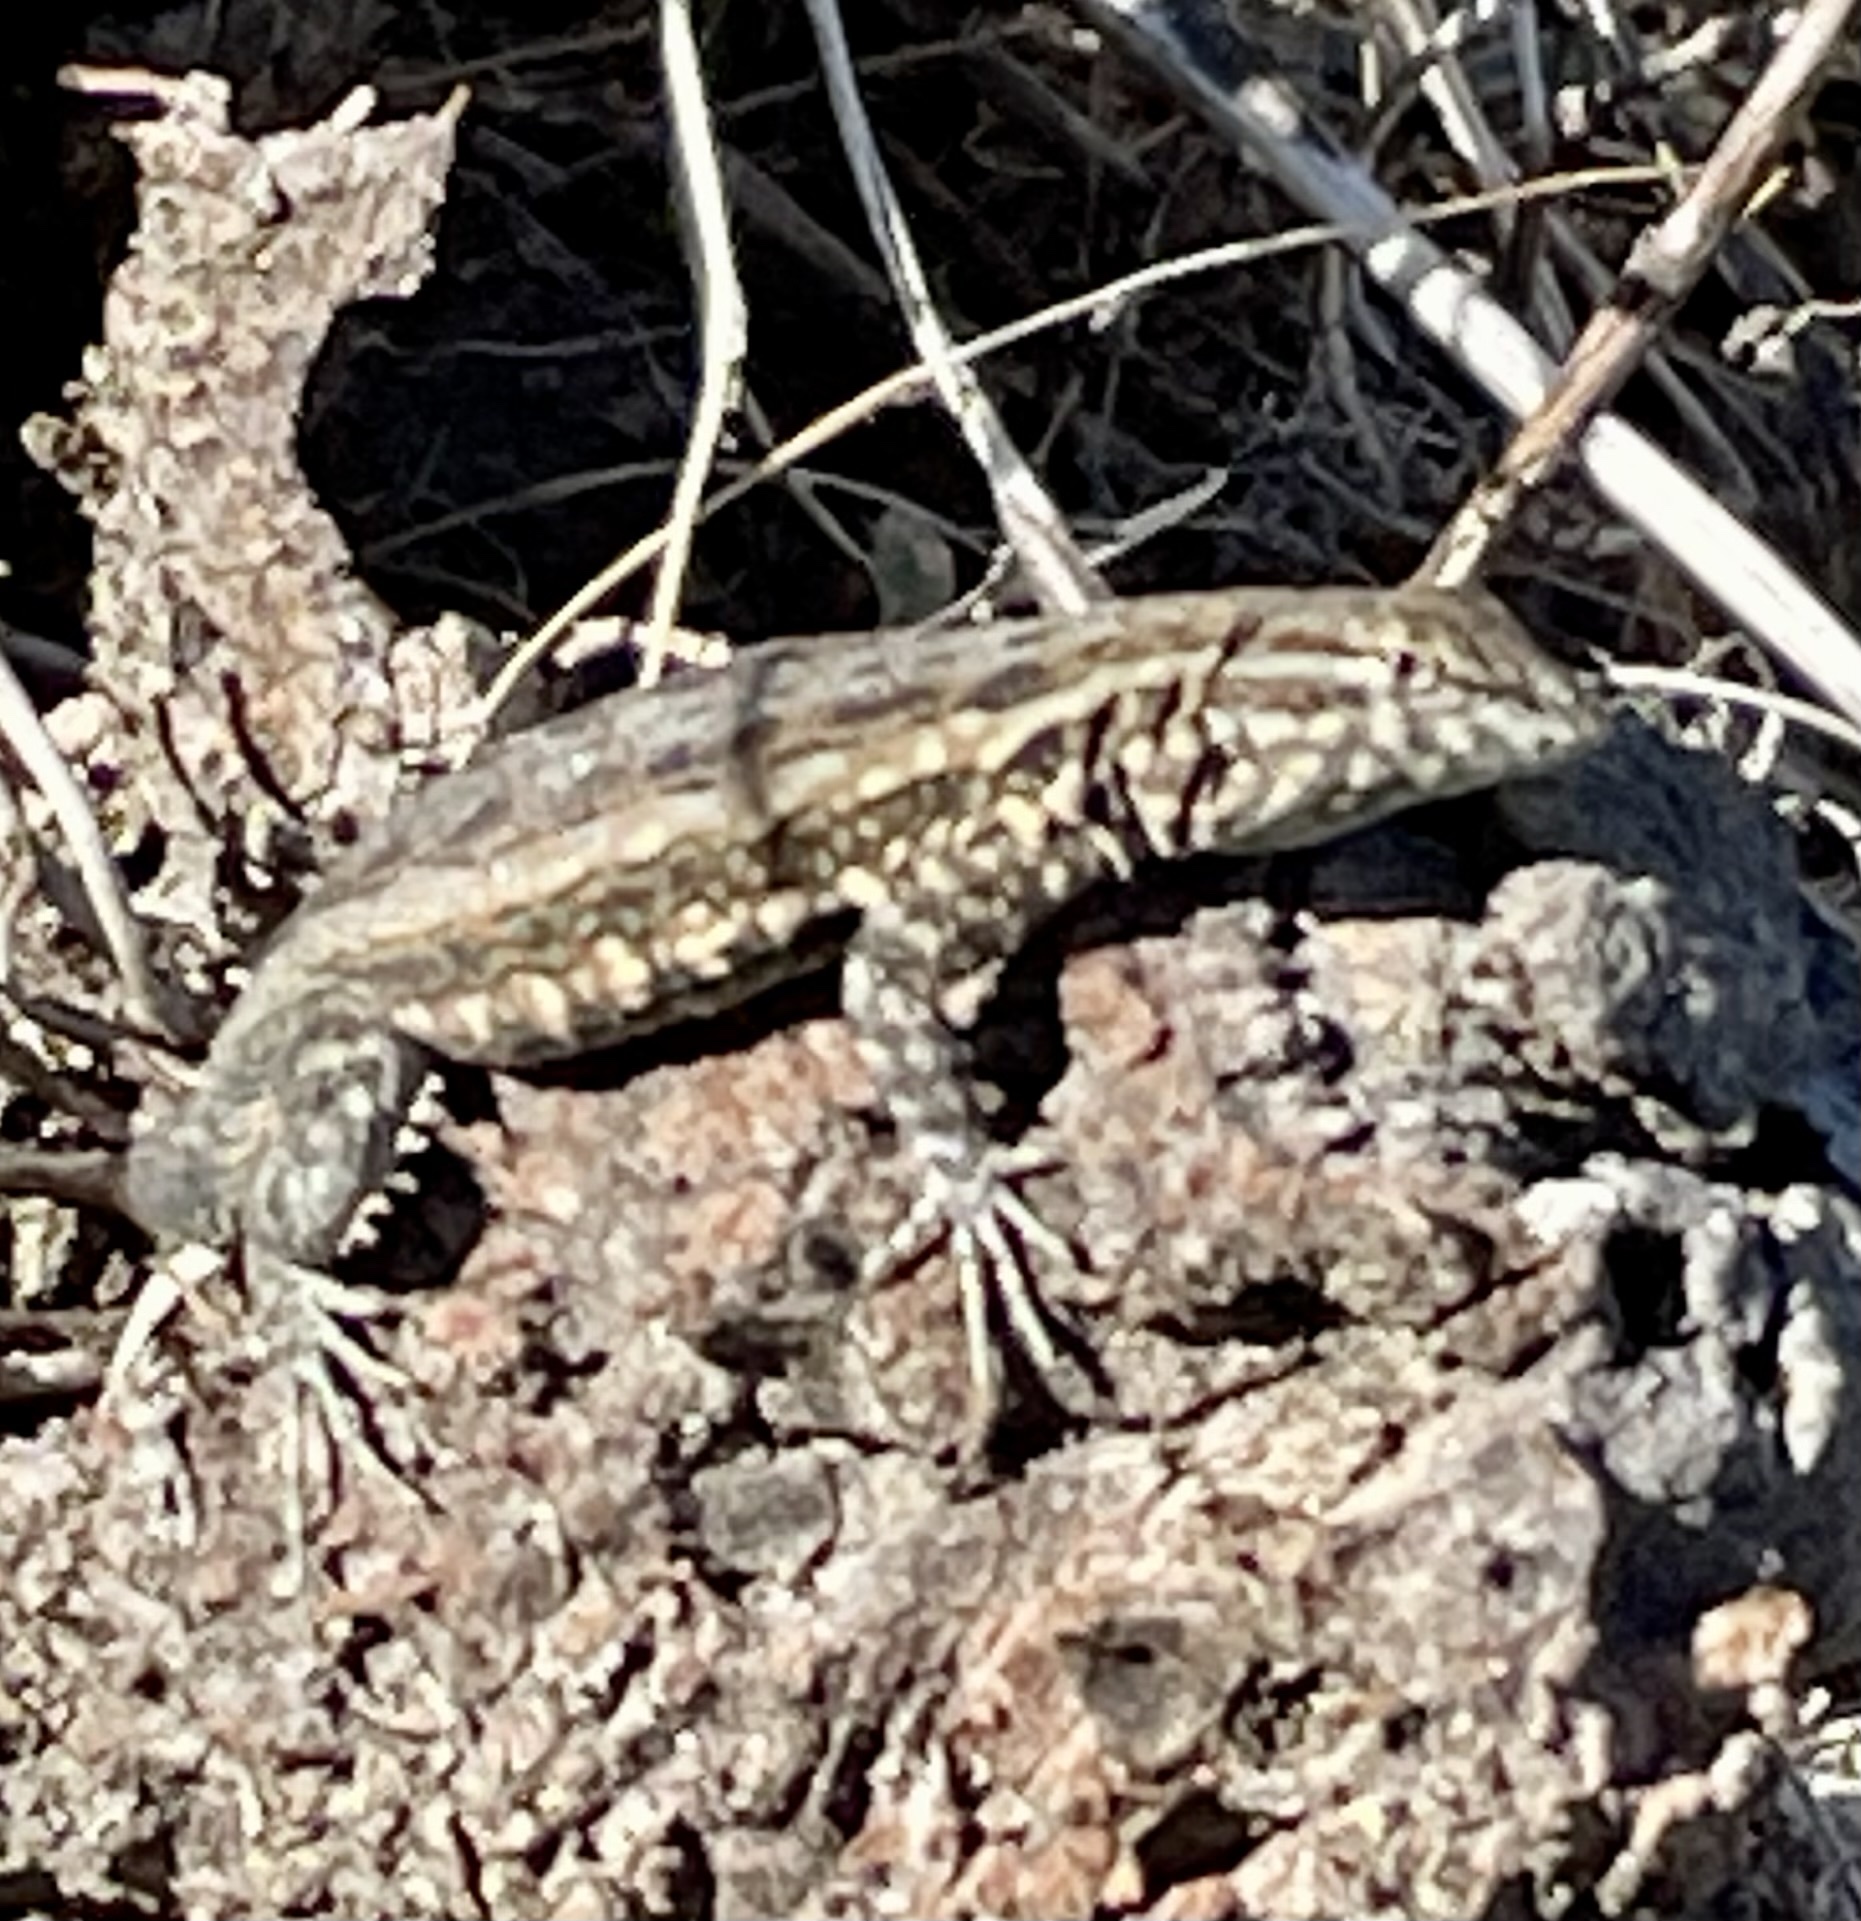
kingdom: Animalia
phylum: Chordata
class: Squamata
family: Phrynosomatidae
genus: Uta
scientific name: Uta stansburiana
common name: Side-blotched lizard
